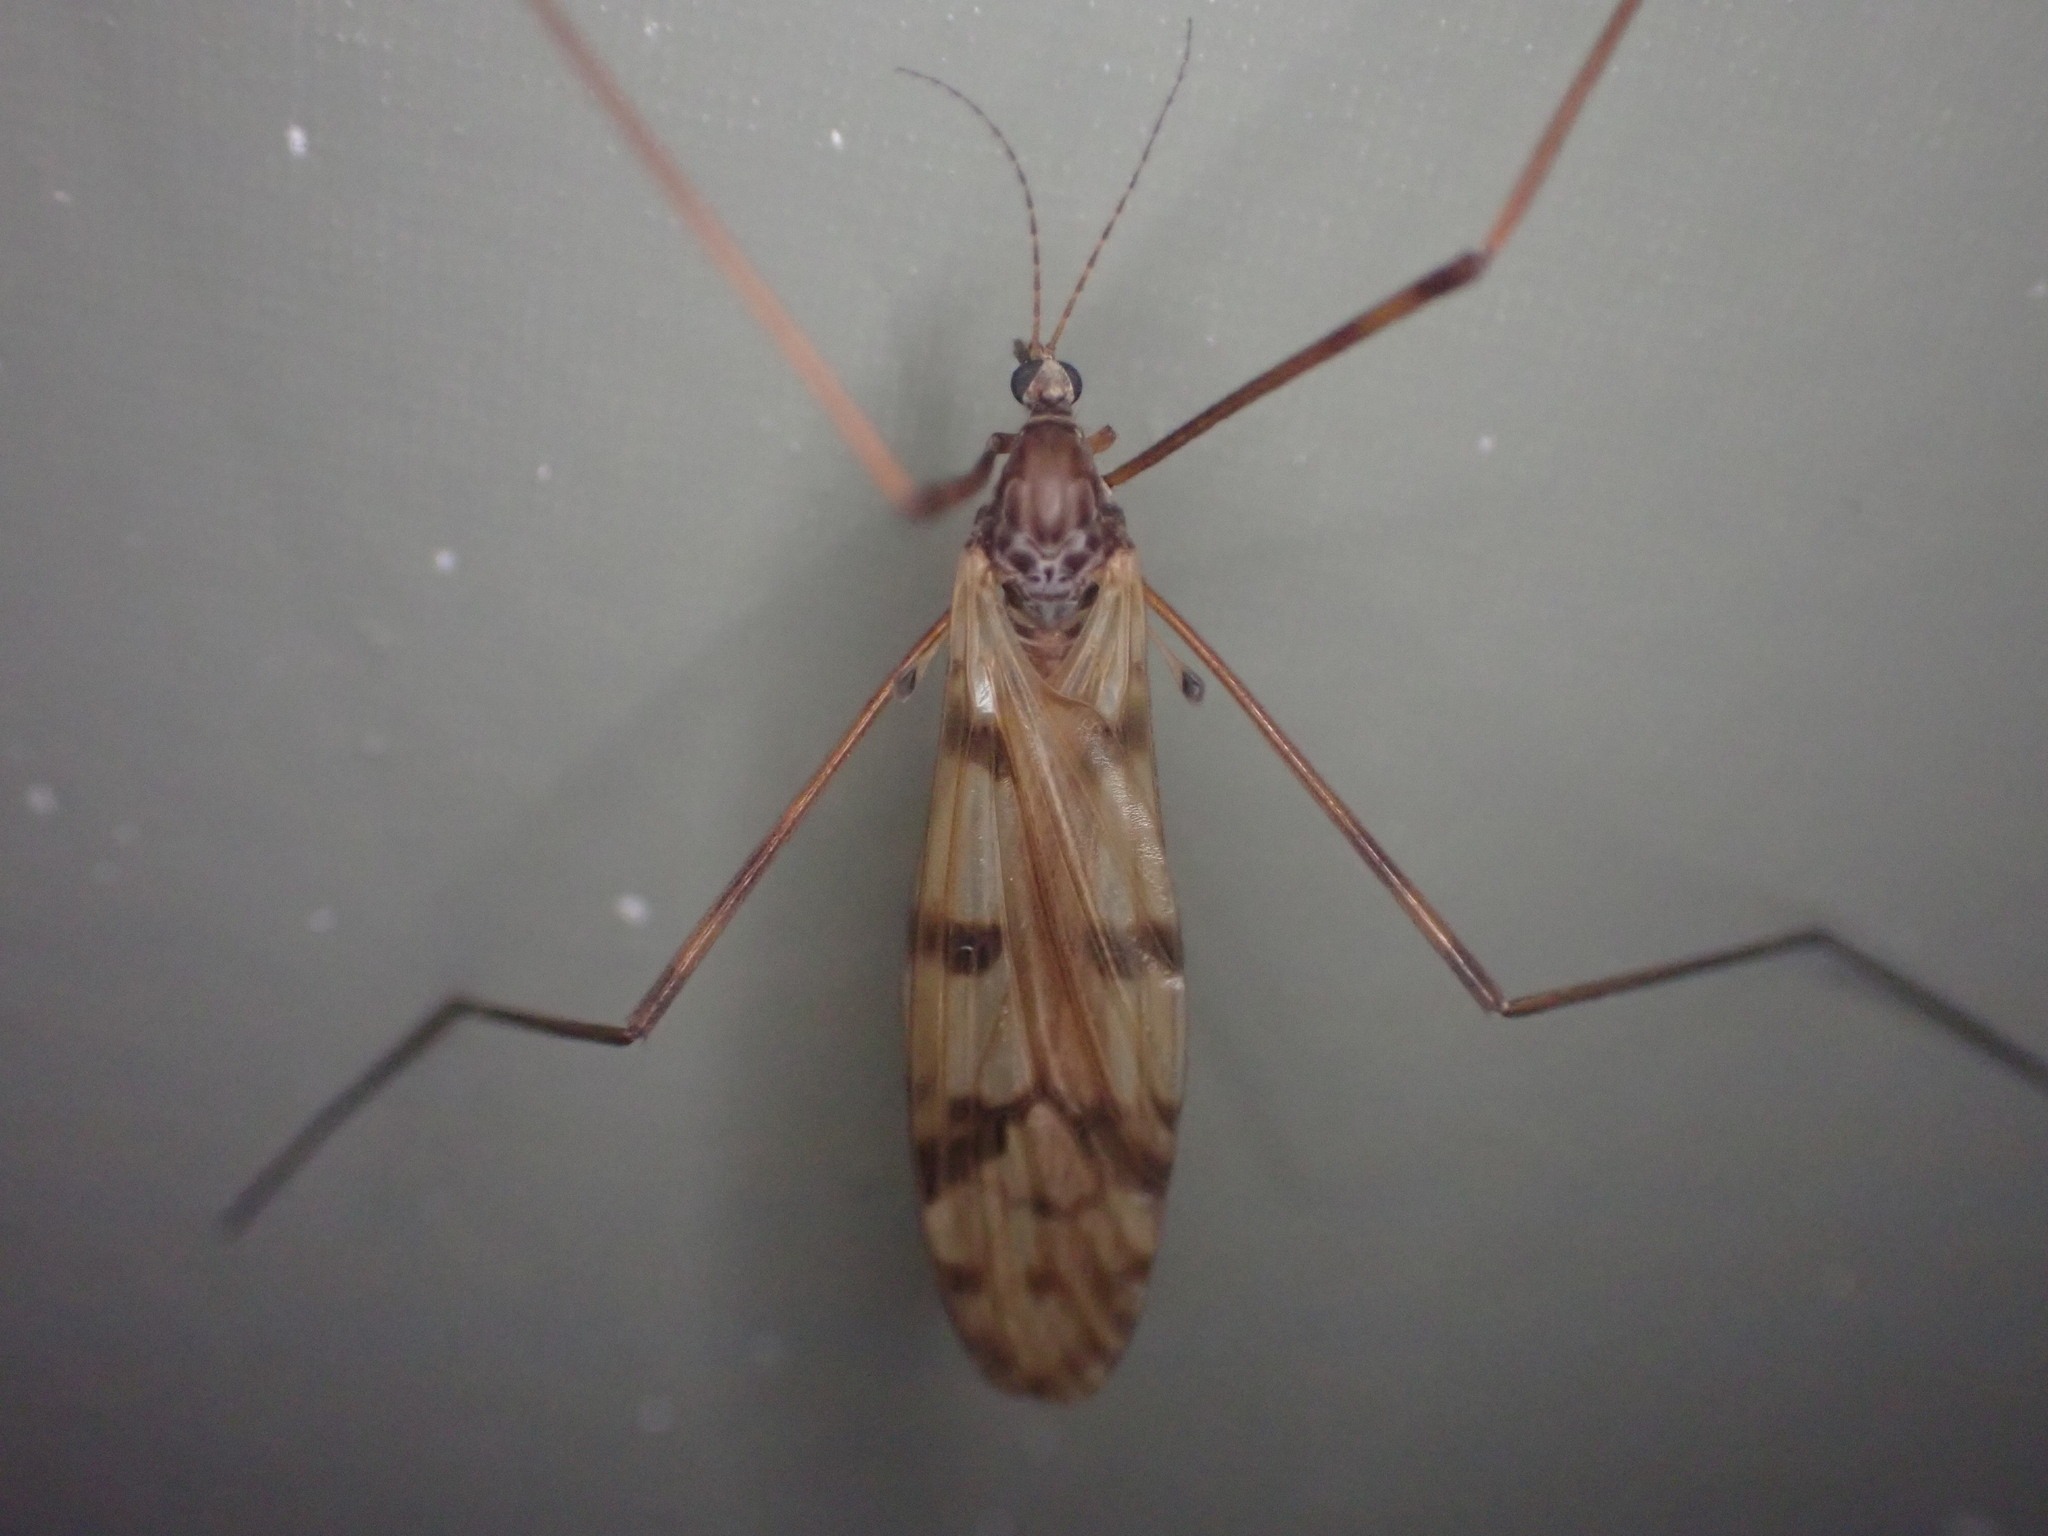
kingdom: Animalia
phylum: Arthropoda
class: Insecta
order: Diptera
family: Limoniidae
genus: Austrolimnophila
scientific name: Austrolimnophila cyatheti
